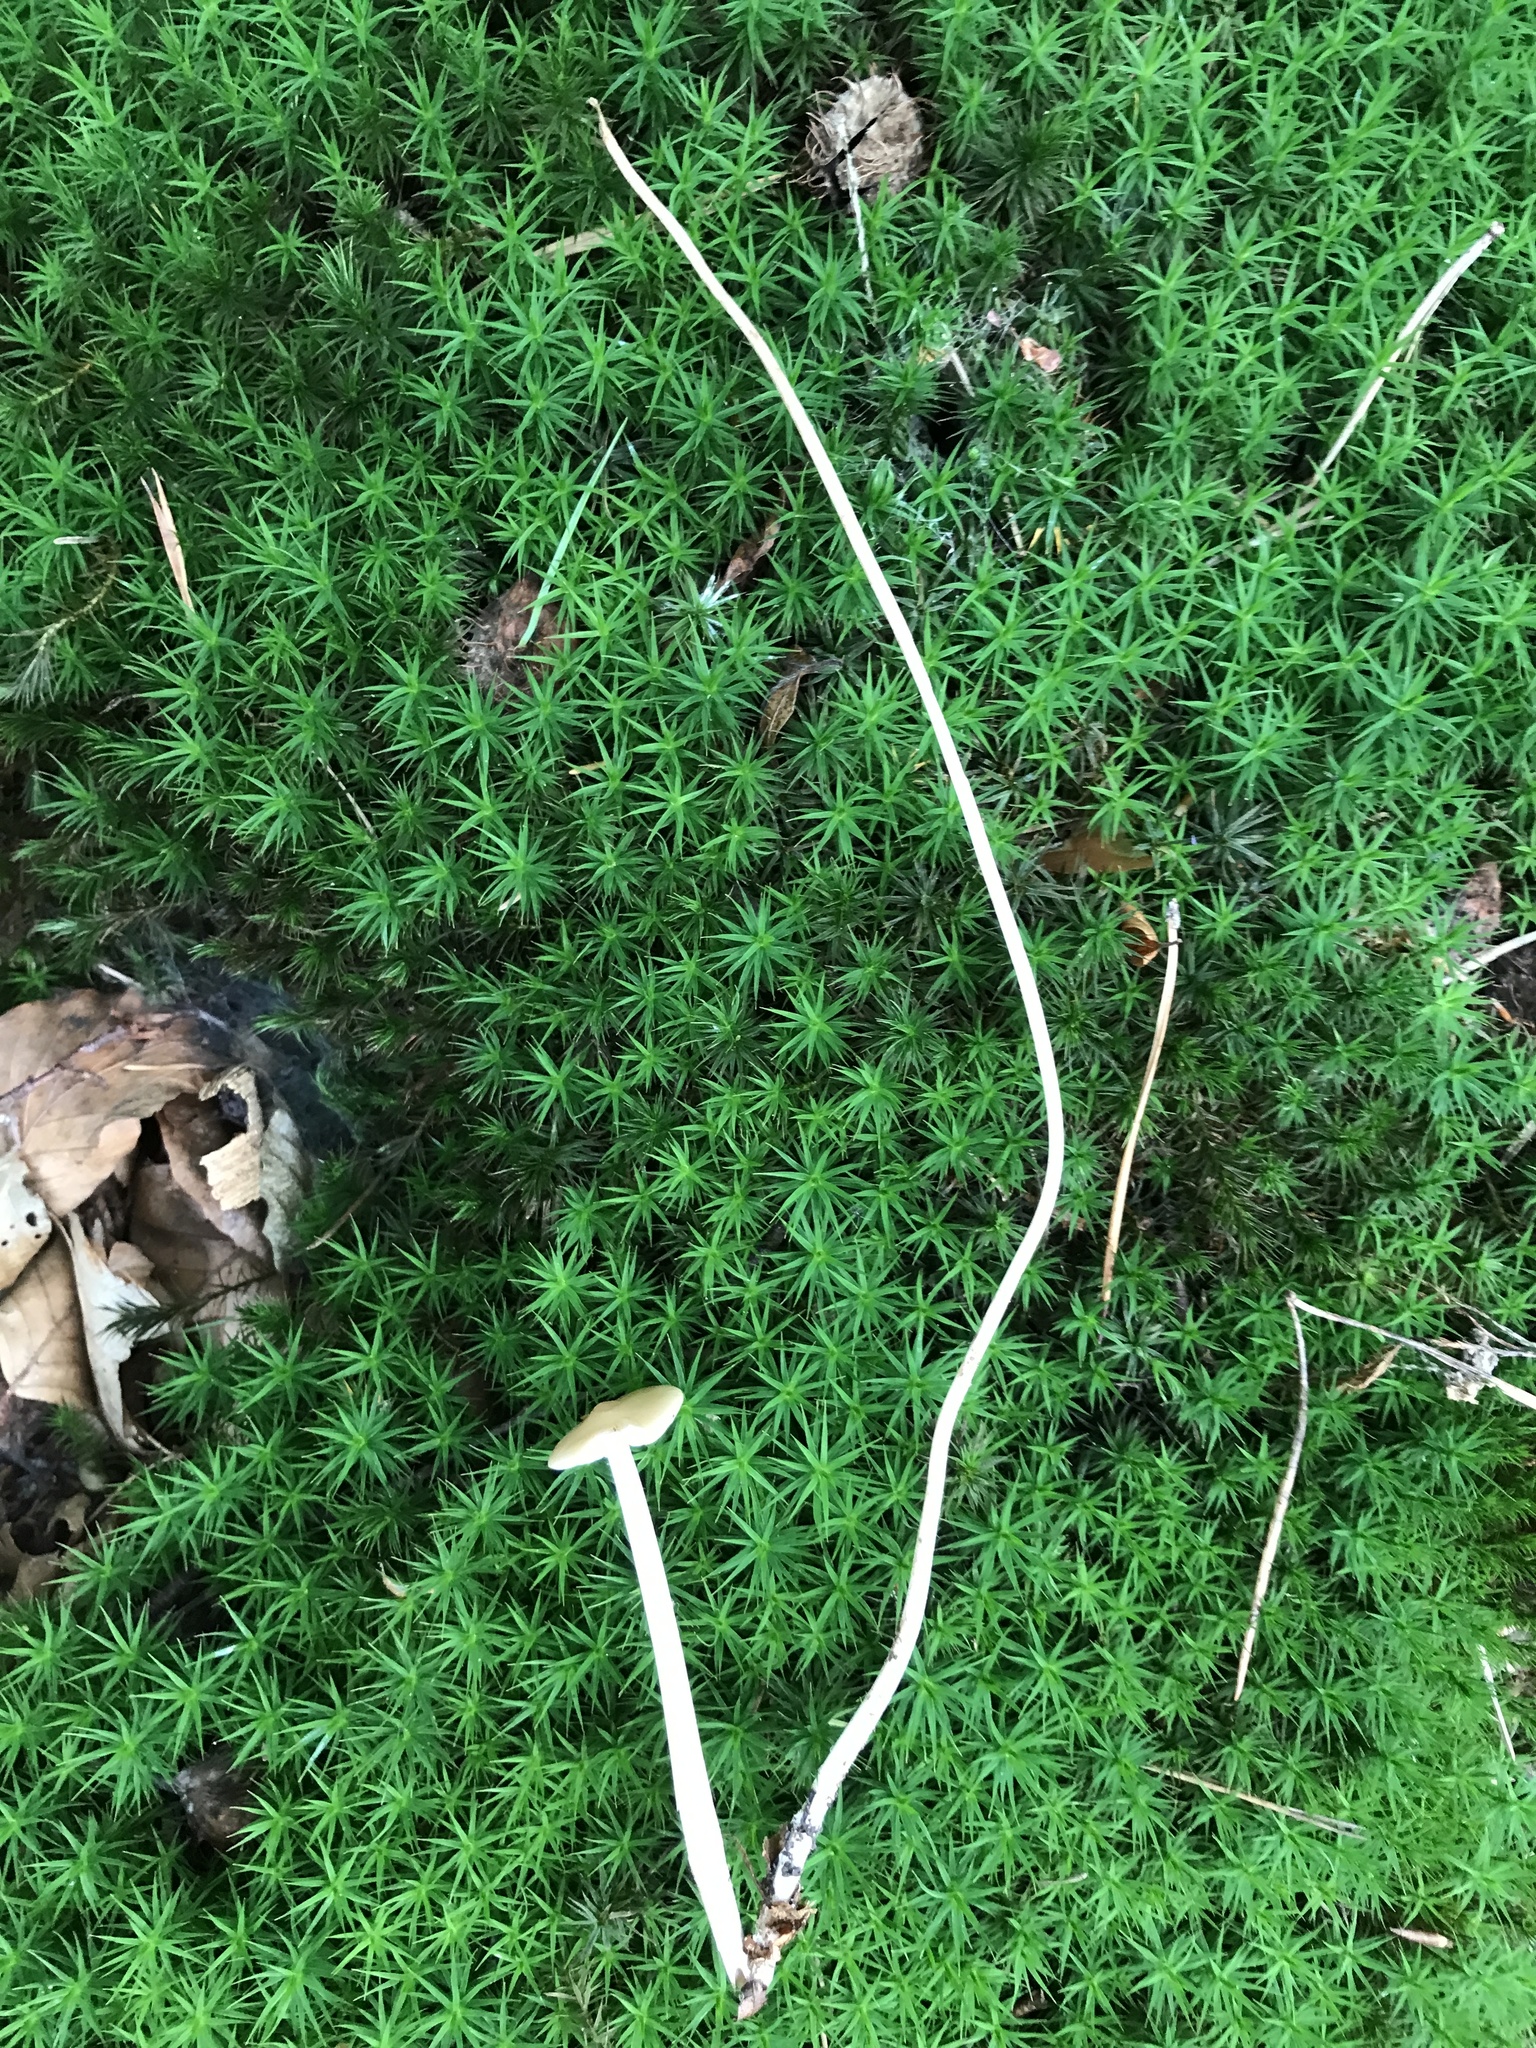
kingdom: Fungi
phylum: Basidiomycota
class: Agaricomycetes
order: Agaricales
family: Physalacriaceae
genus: Hymenopellis
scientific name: Hymenopellis radicata
